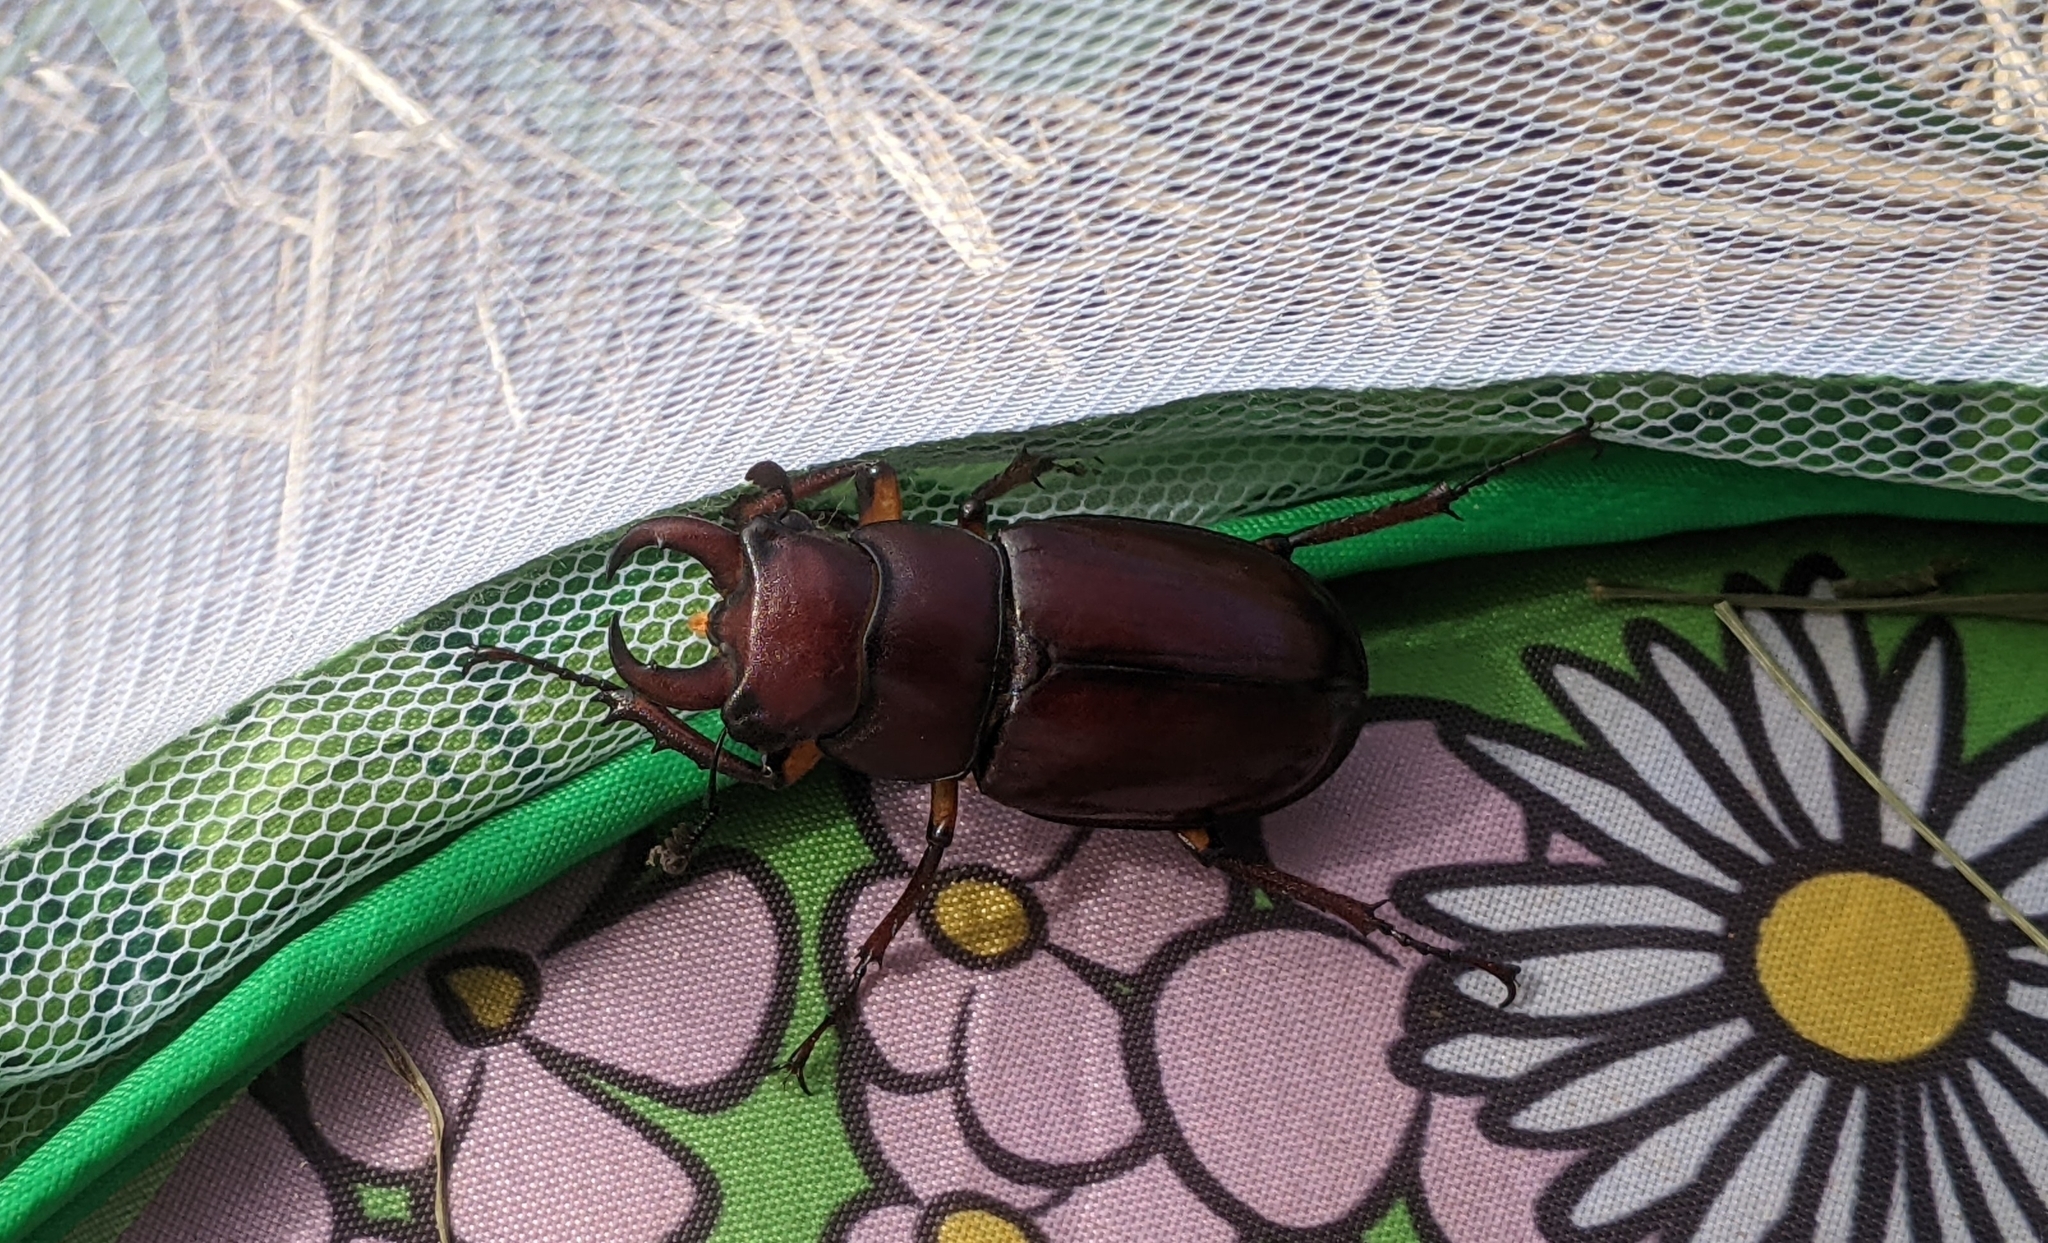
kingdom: Animalia
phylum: Arthropoda
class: Insecta
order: Coleoptera
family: Lucanidae
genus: Lucanus
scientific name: Lucanus capreolus
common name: Stag beetle
